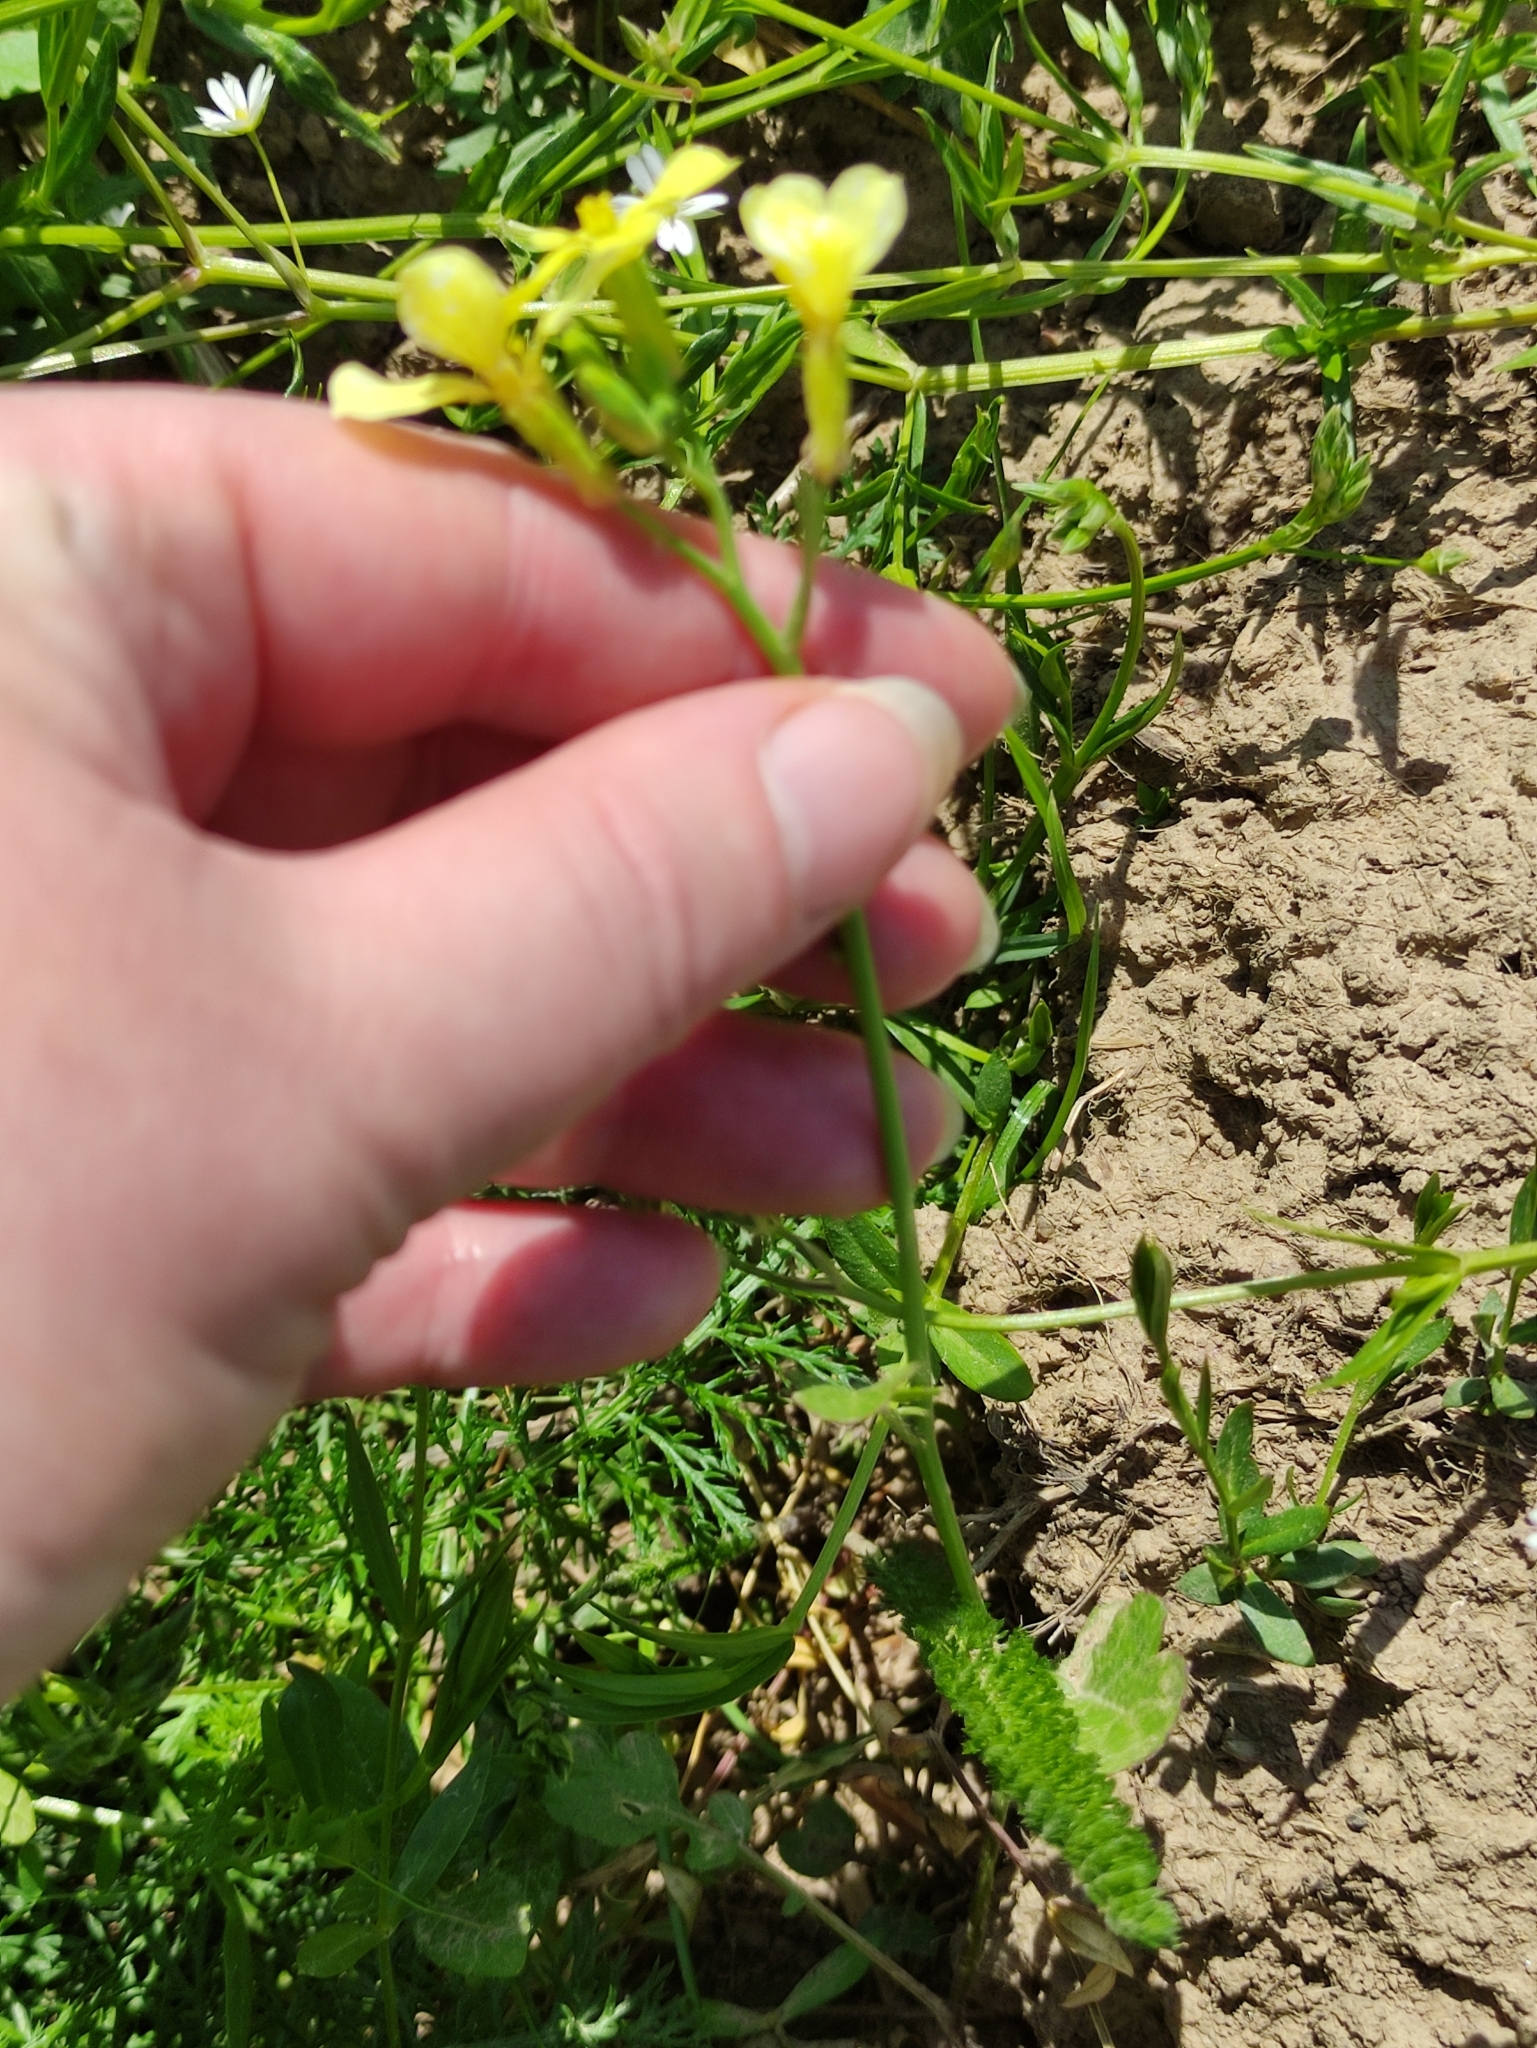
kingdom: Plantae
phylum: Tracheophyta
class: Magnoliopsida
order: Brassicales
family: Brassicaceae
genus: Raphanus
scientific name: Raphanus raphanistrum
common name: Wild radish
